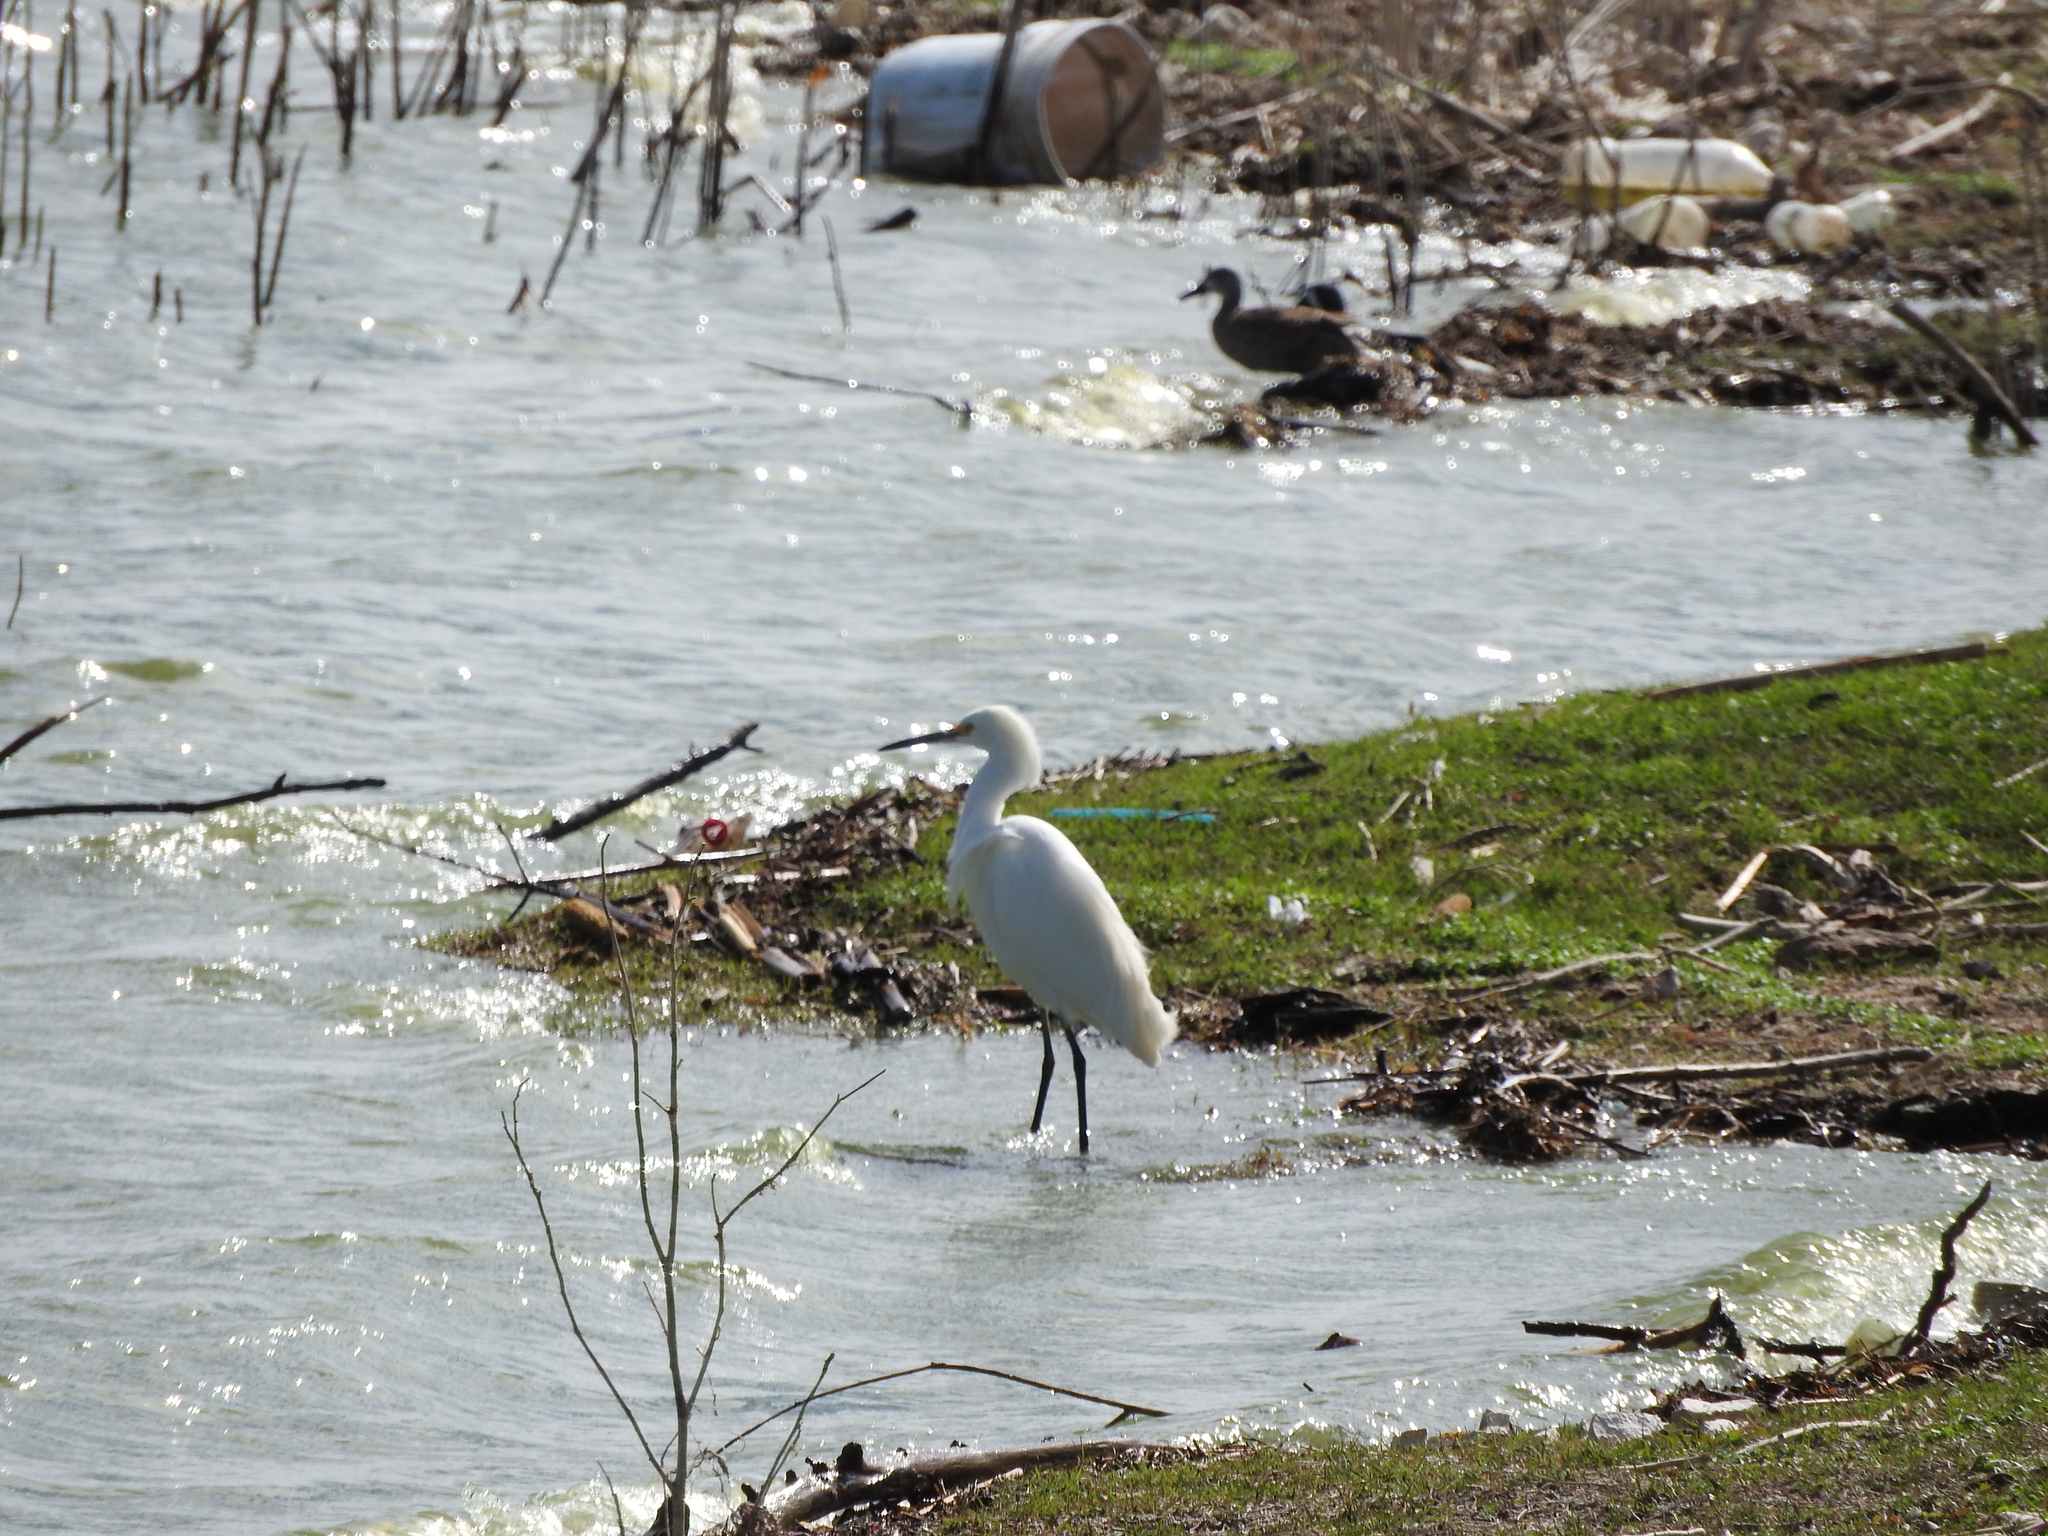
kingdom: Animalia
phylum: Chordata
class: Aves
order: Pelecaniformes
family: Ardeidae
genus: Egretta
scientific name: Egretta thula
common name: Snowy egret
